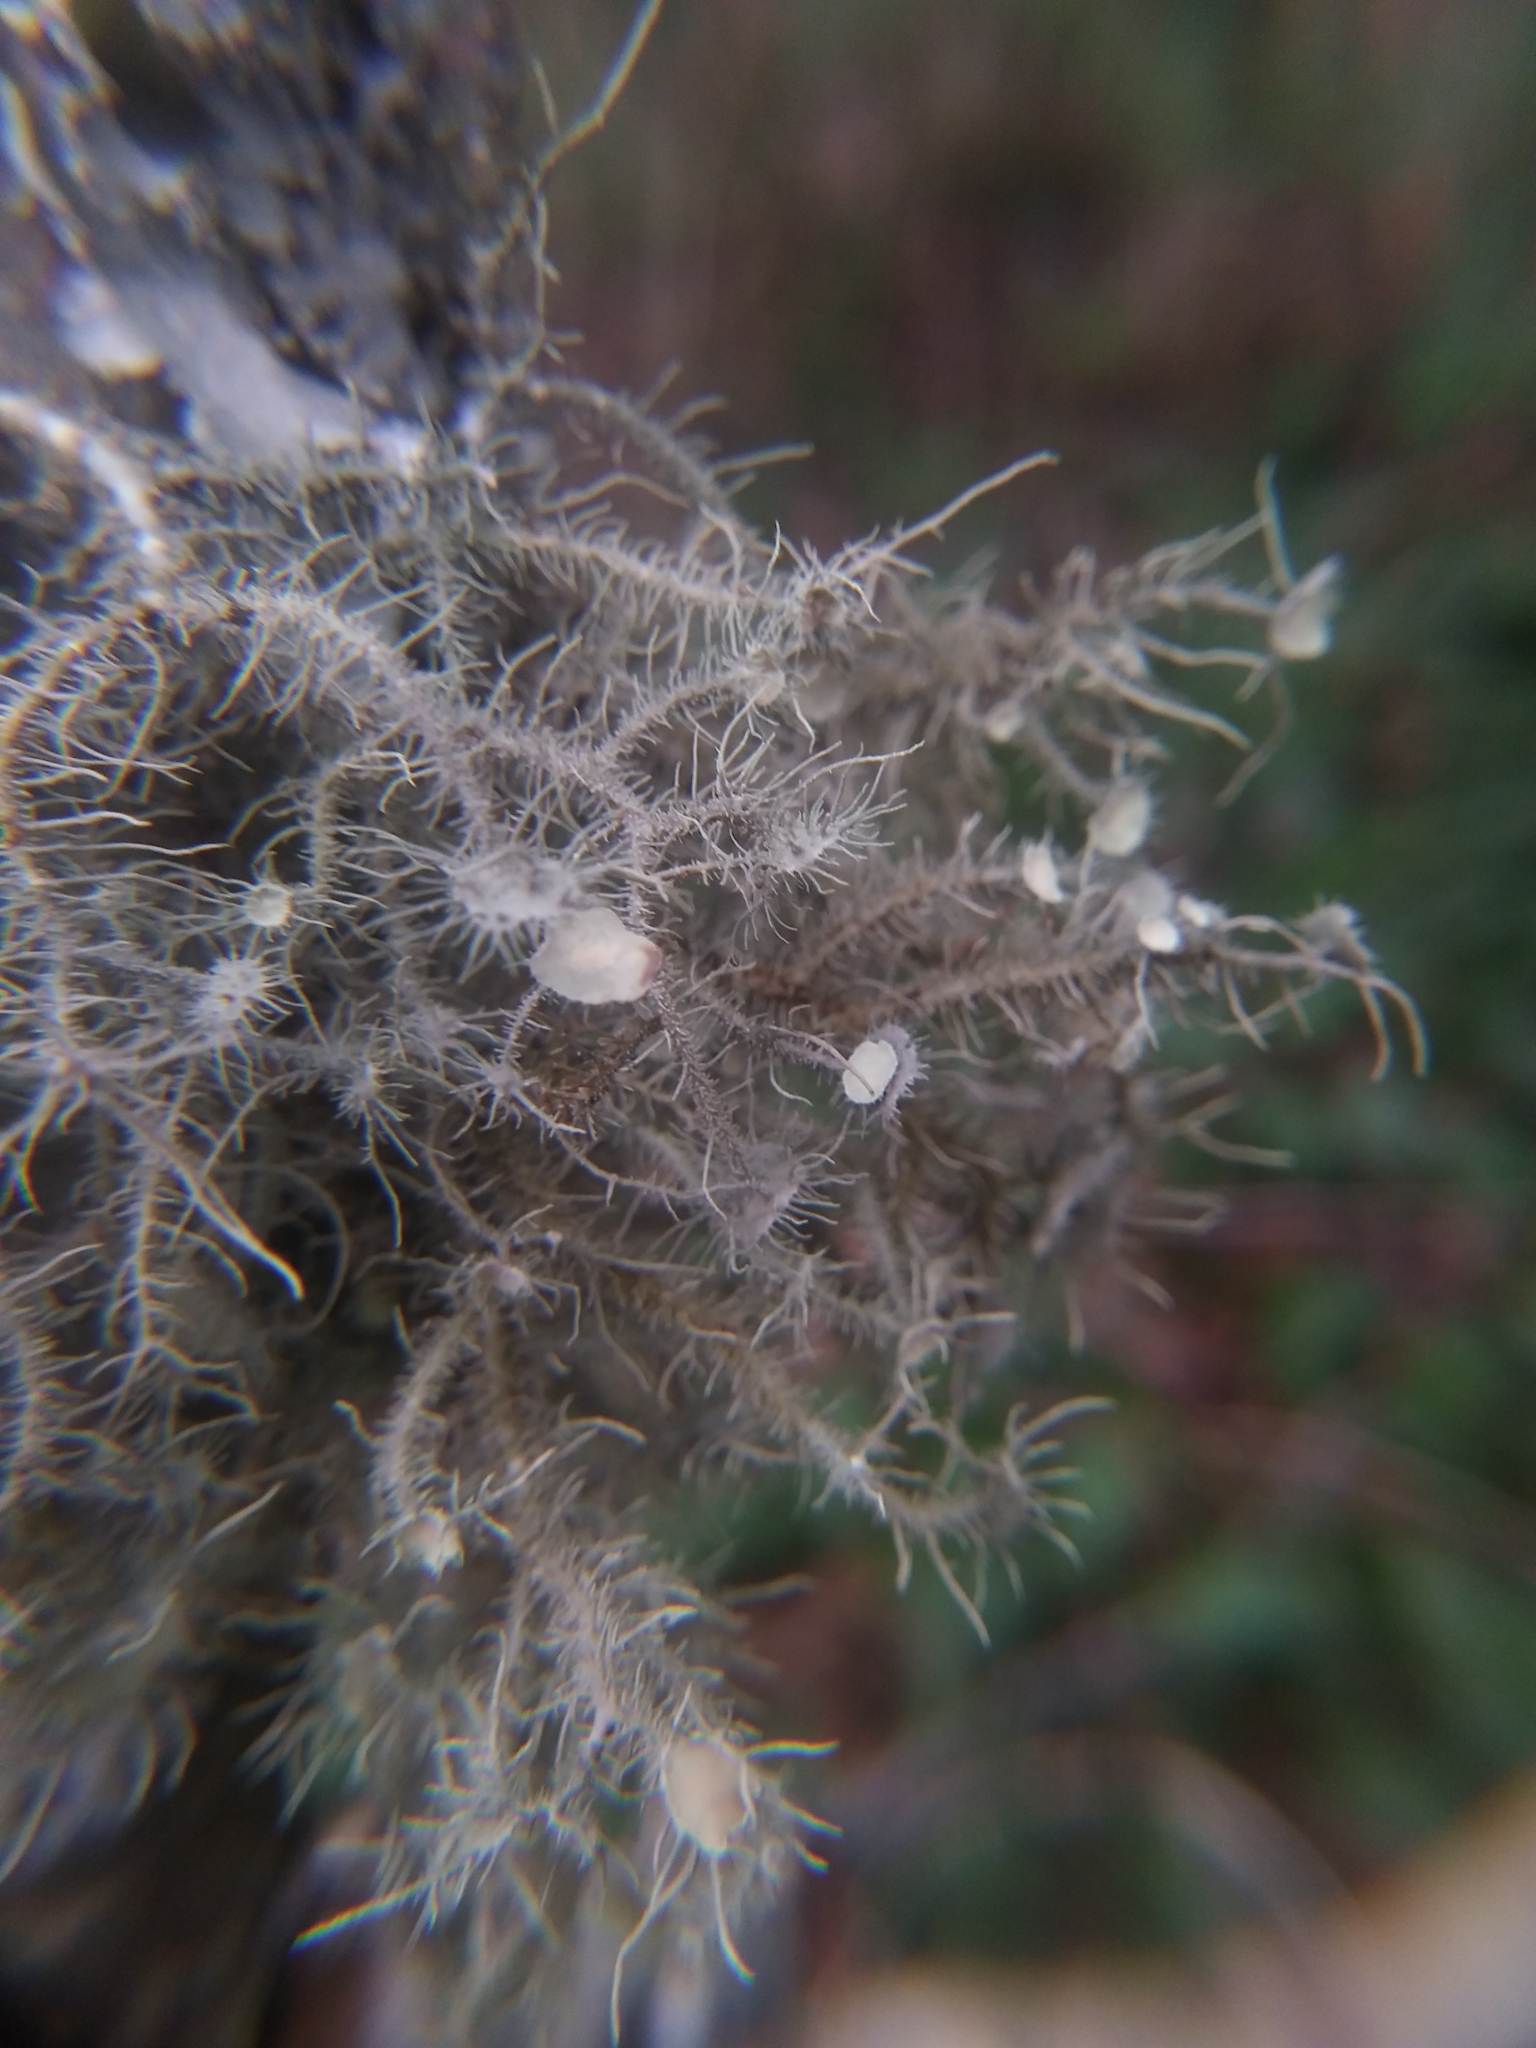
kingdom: Fungi
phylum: Ascomycota
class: Lecanoromycetes
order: Lecanorales
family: Parmeliaceae
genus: Usnea
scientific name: Usnea strigosa
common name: Bushy beard lichen
